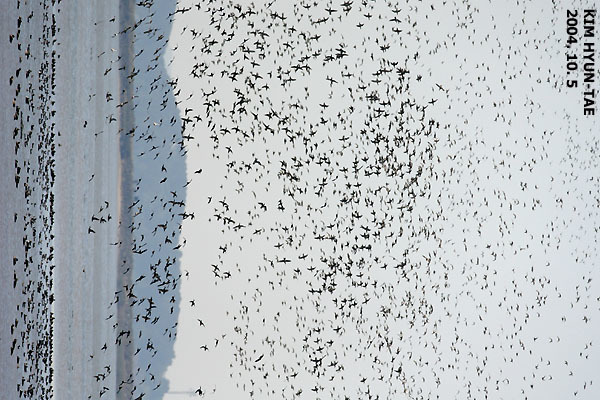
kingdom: Animalia
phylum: Chordata
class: Aves
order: Anseriformes
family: Anatidae
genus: Sibirionetta
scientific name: Sibirionetta formosa
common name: Baikal teal
